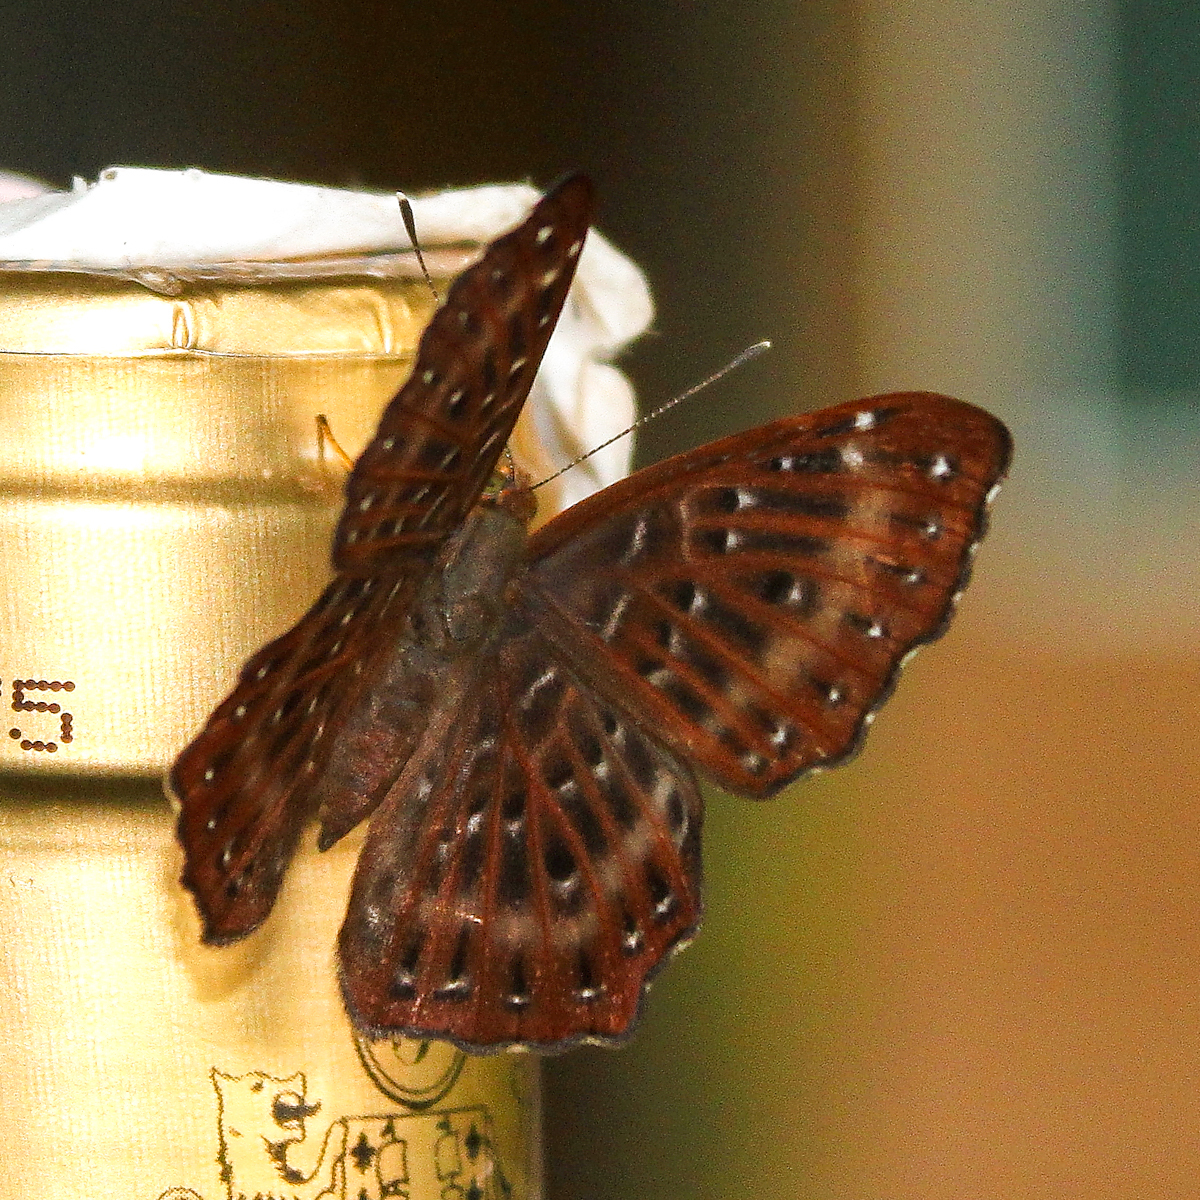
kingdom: Animalia
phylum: Arthropoda
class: Insecta
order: Lepidoptera
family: Riodinidae
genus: Zemeros
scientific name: Zemeros flegyas
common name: Punchinello
